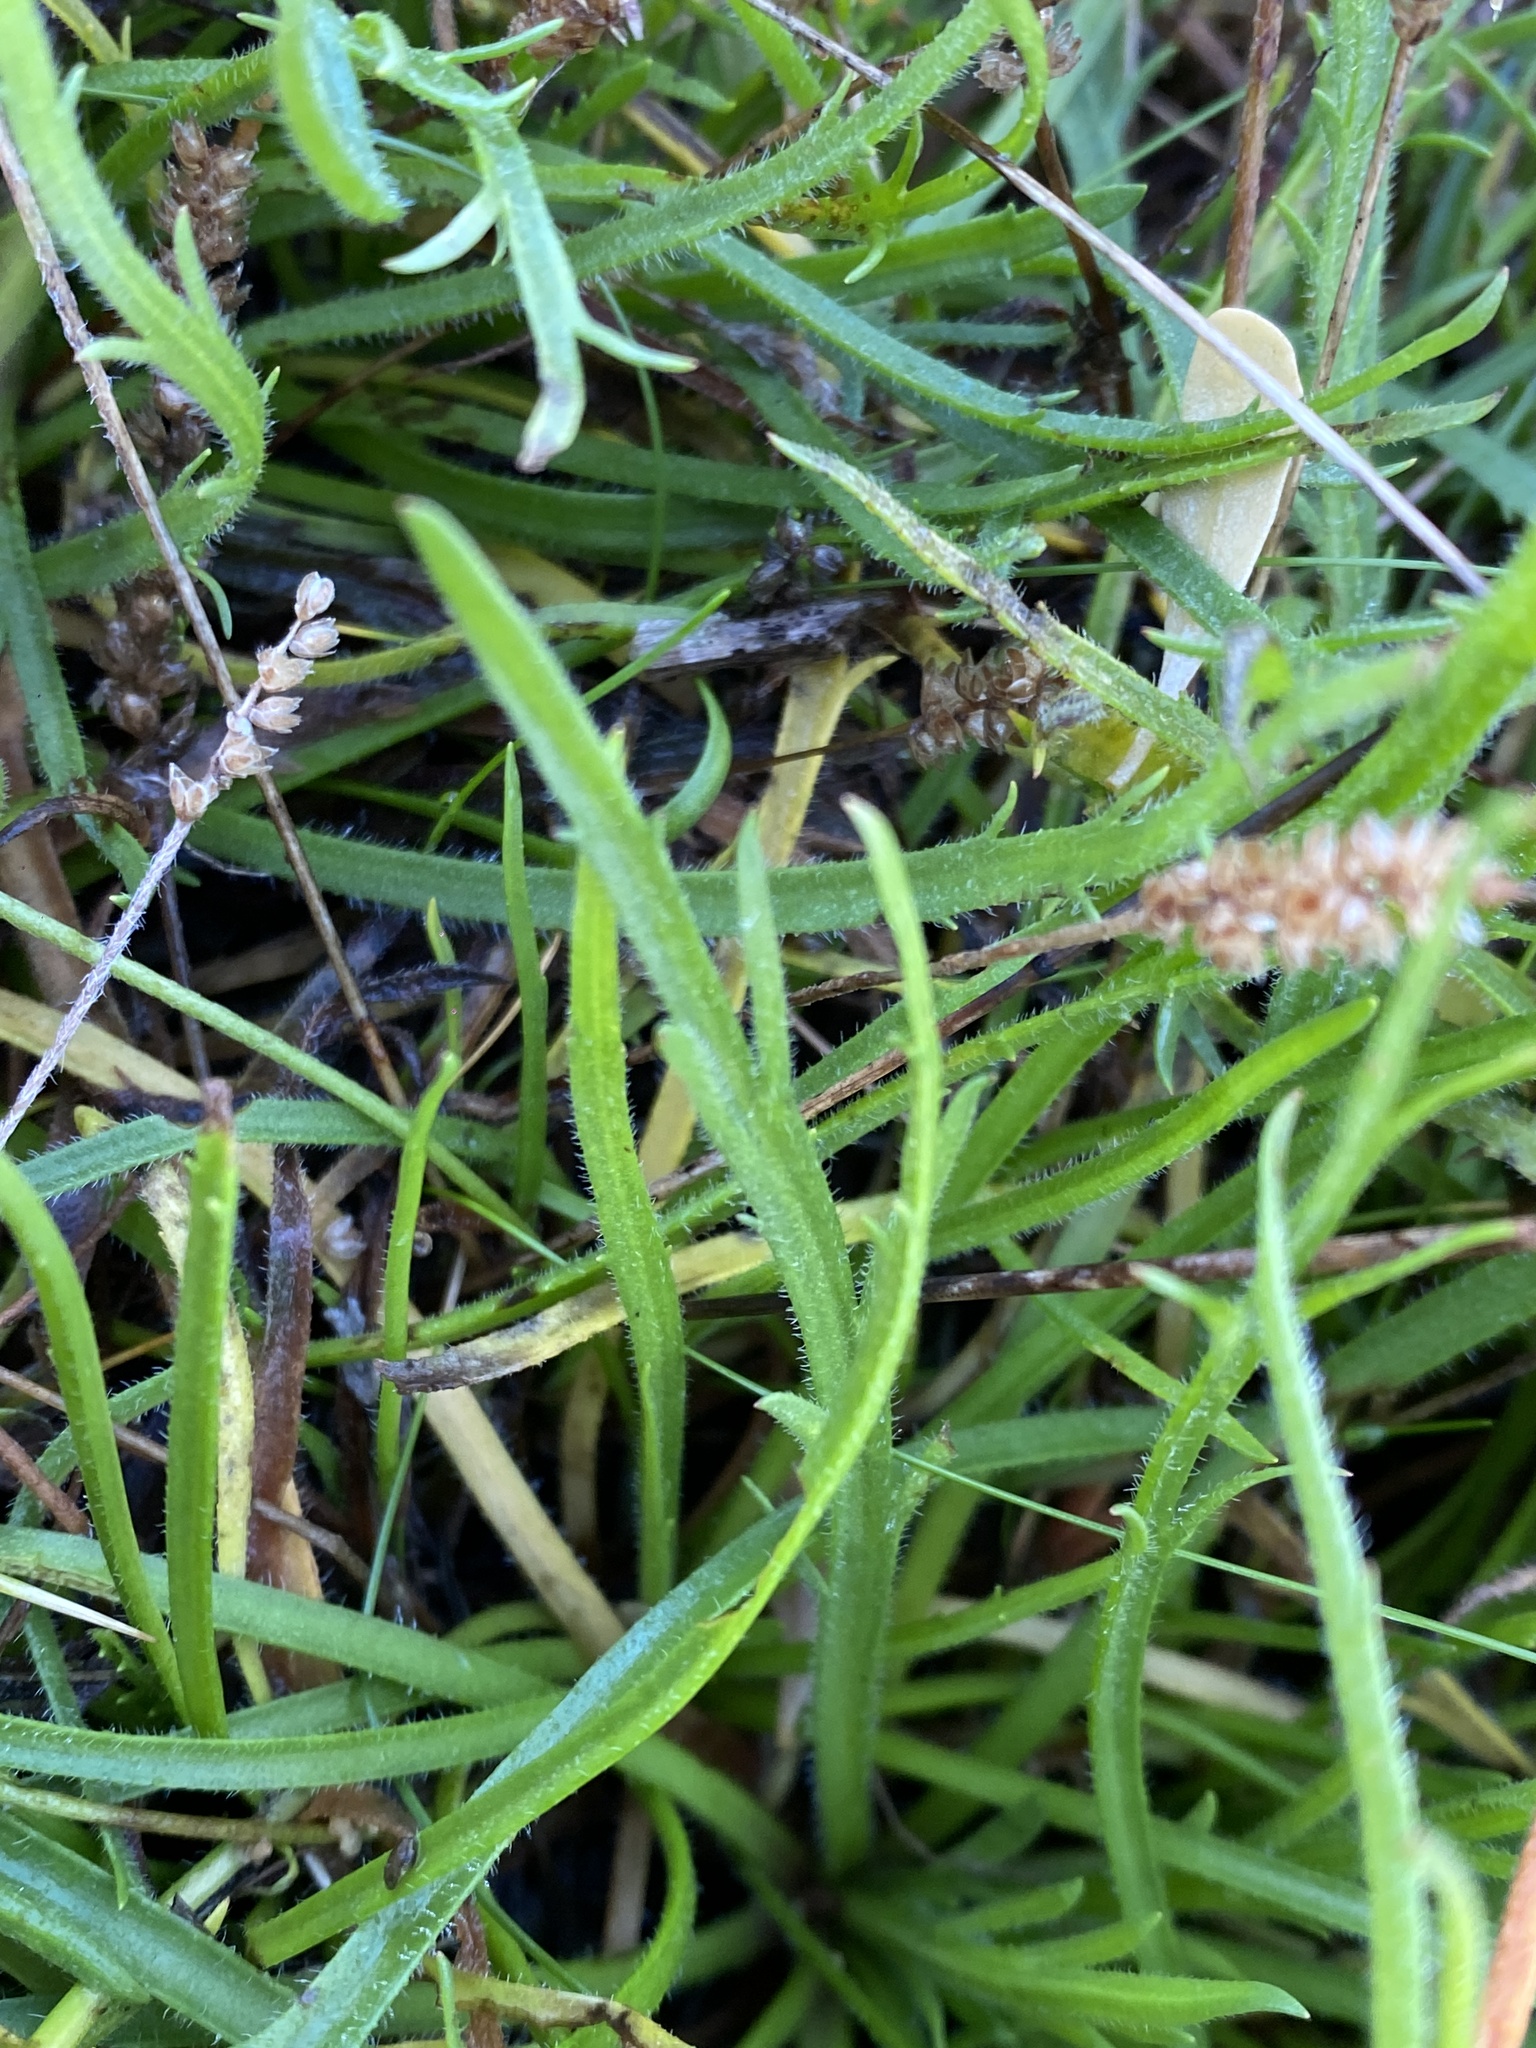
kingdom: Plantae
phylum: Tracheophyta
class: Magnoliopsida
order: Lamiales
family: Plantaginaceae
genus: Plantago
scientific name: Plantago coronopus
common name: Buck's-horn plantain
